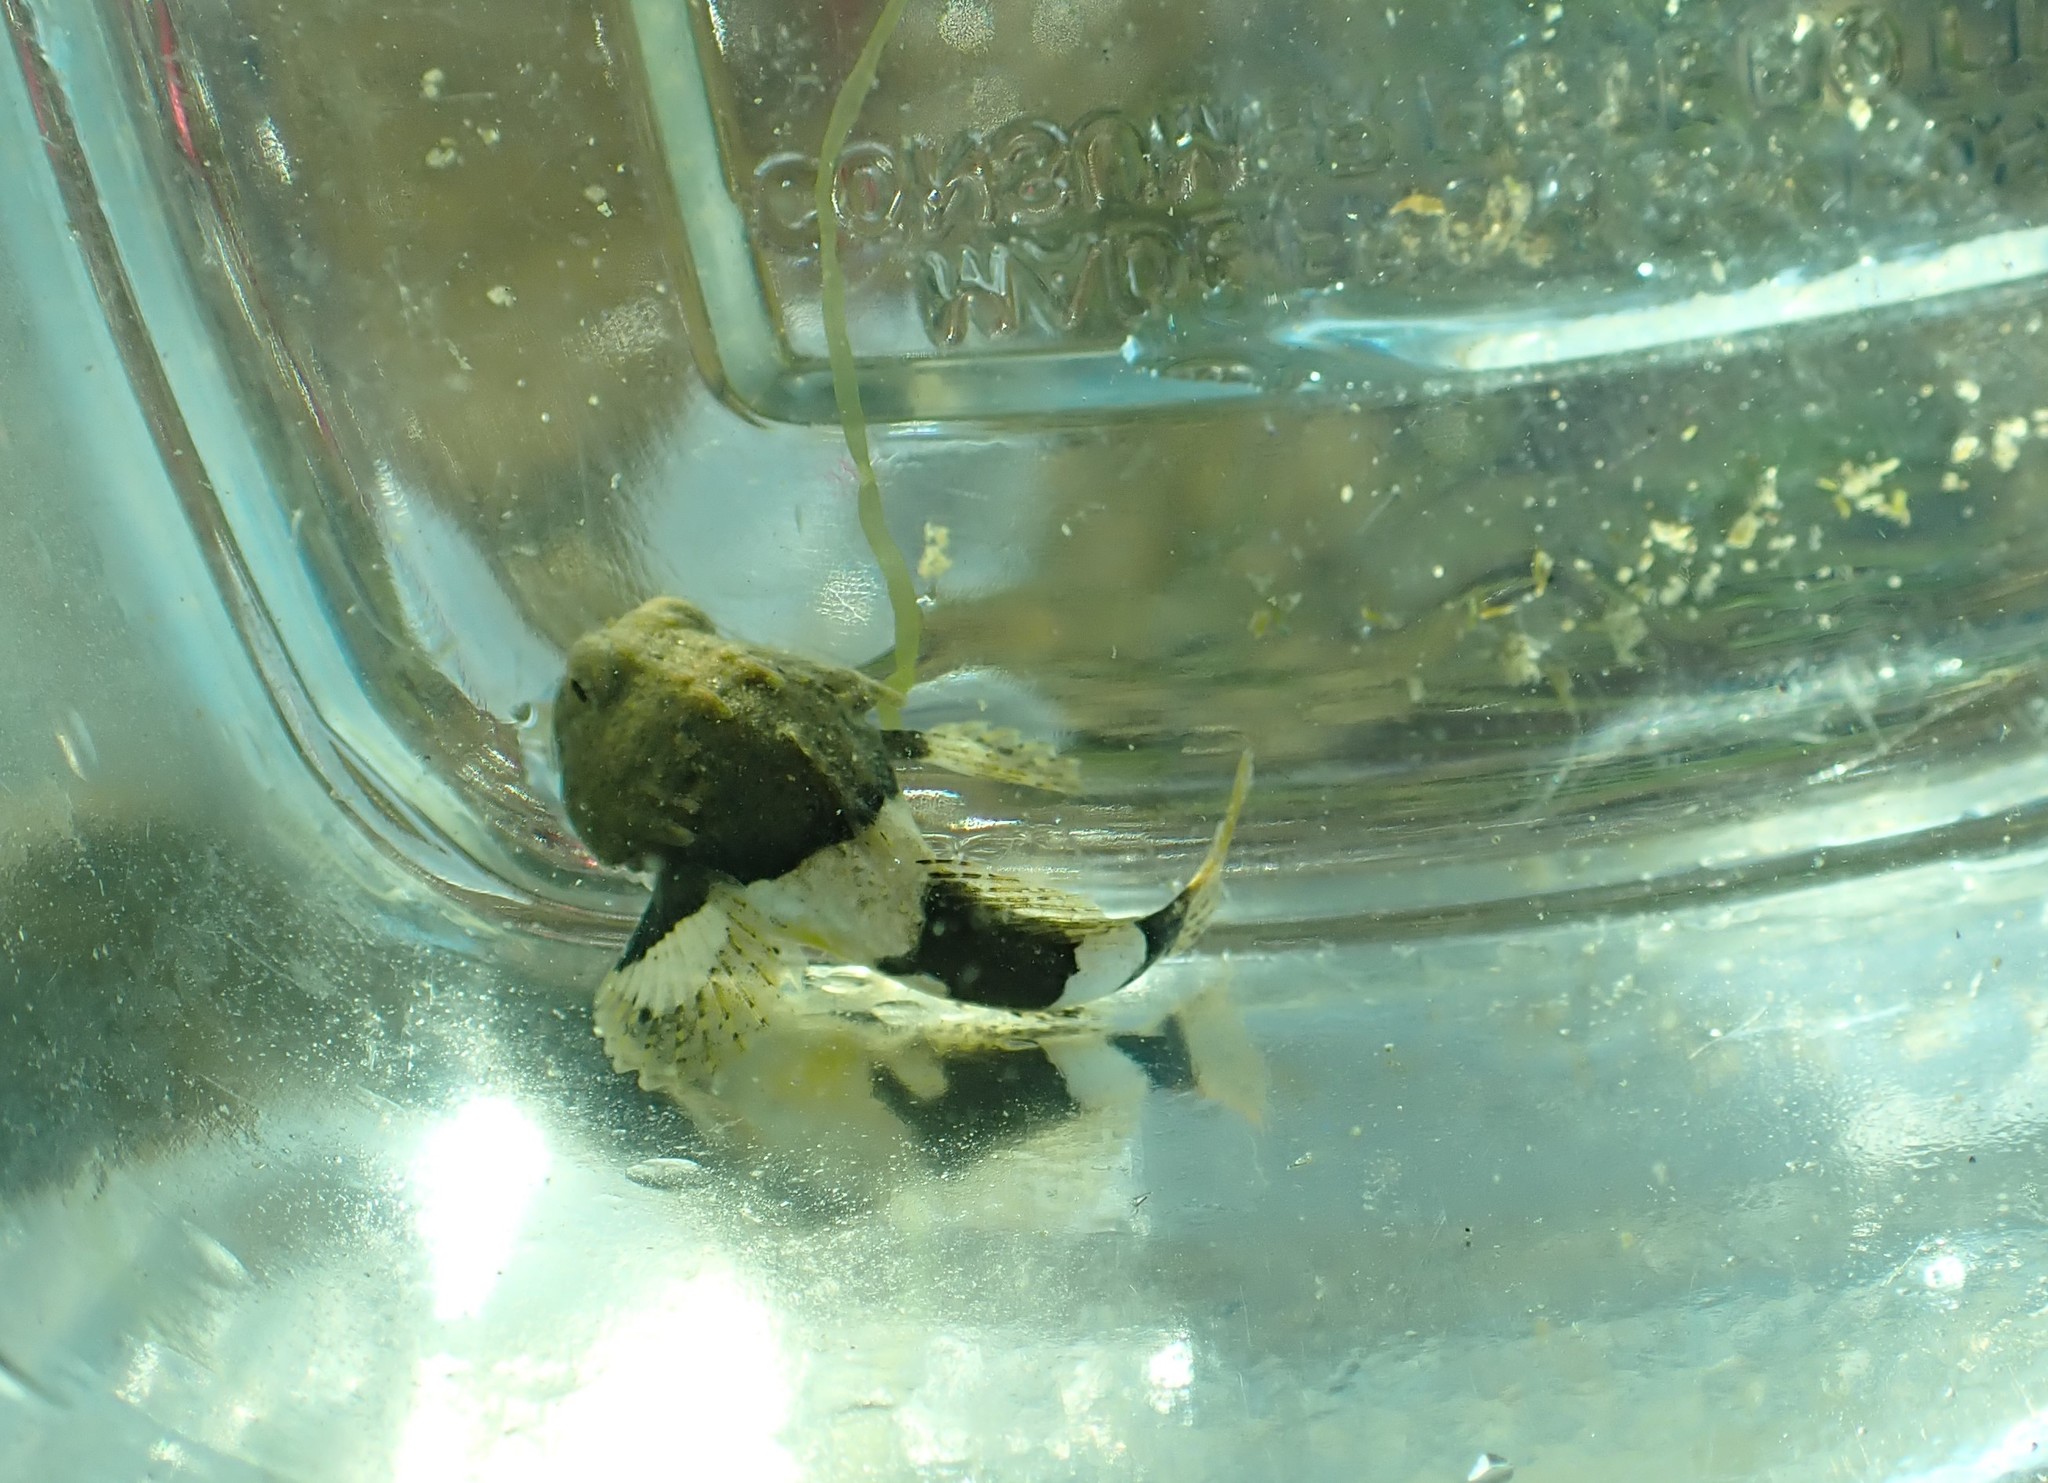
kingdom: Animalia
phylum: Chordata
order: Scorpaeniformes
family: Cottidae
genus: Enophrys
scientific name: Enophrys bison
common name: Buffalo sculpin
